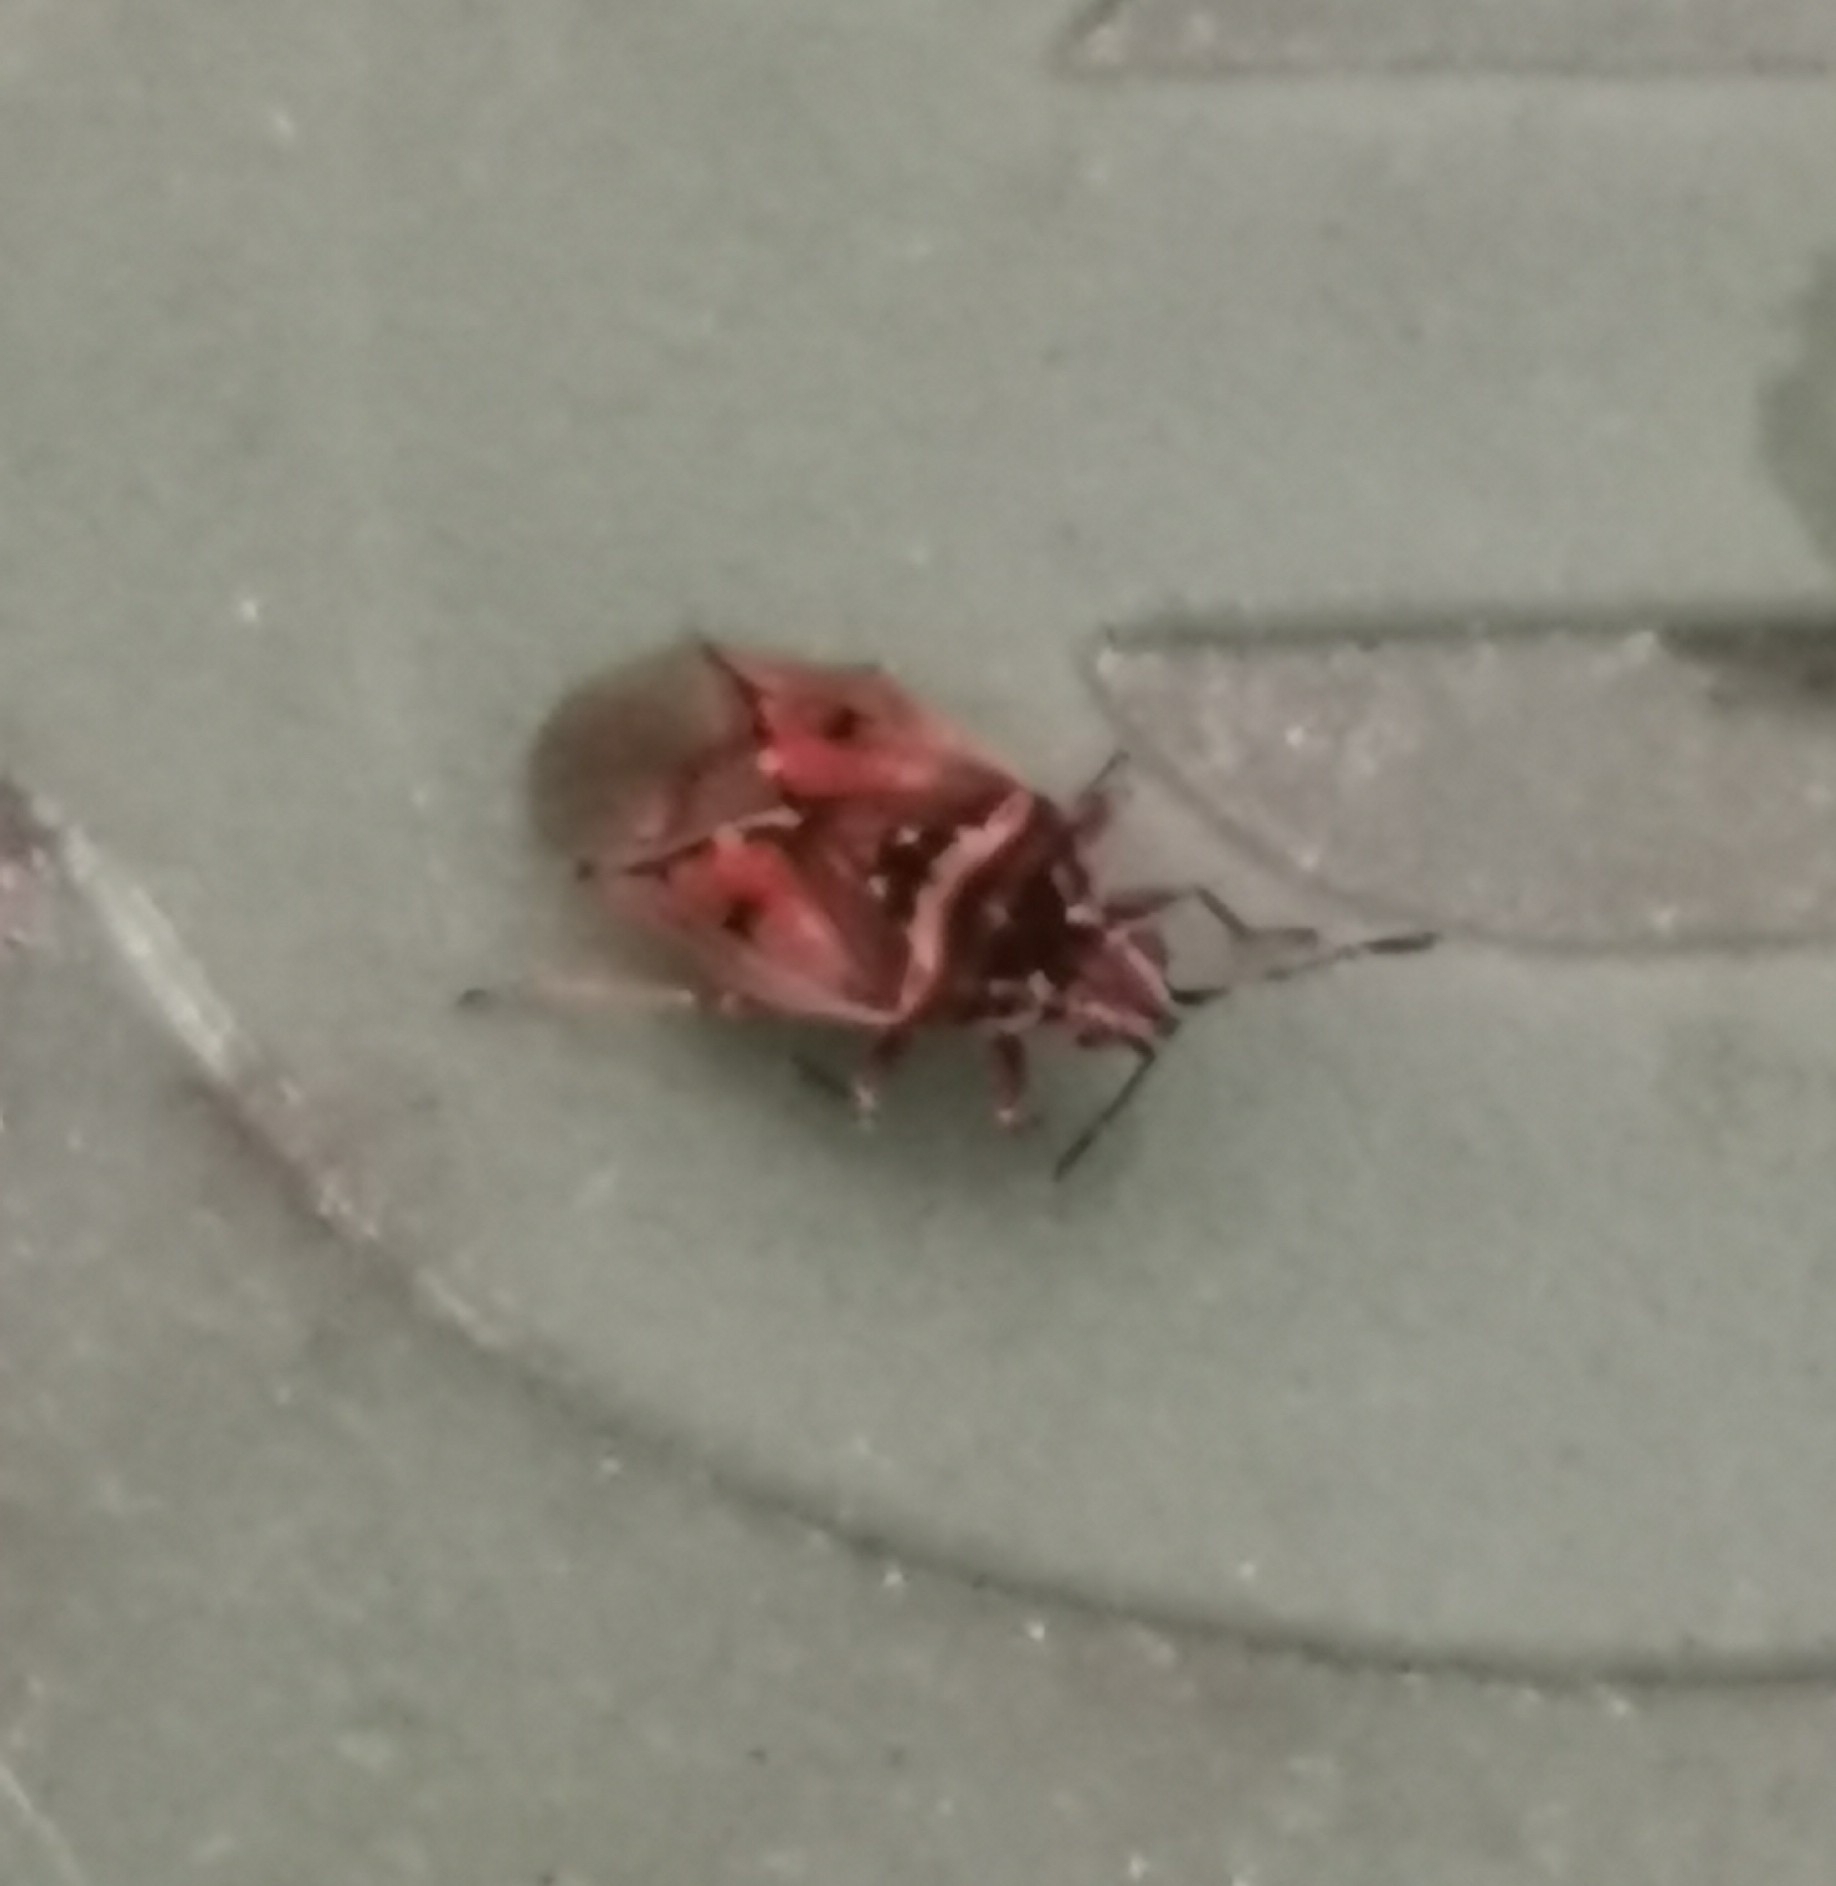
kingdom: Animalia
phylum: Arthropoda
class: Insecta
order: Hemiptera
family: Lygaeidae
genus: Kleidocerys
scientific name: Kleidocerys resedae
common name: Birch catkin bug
